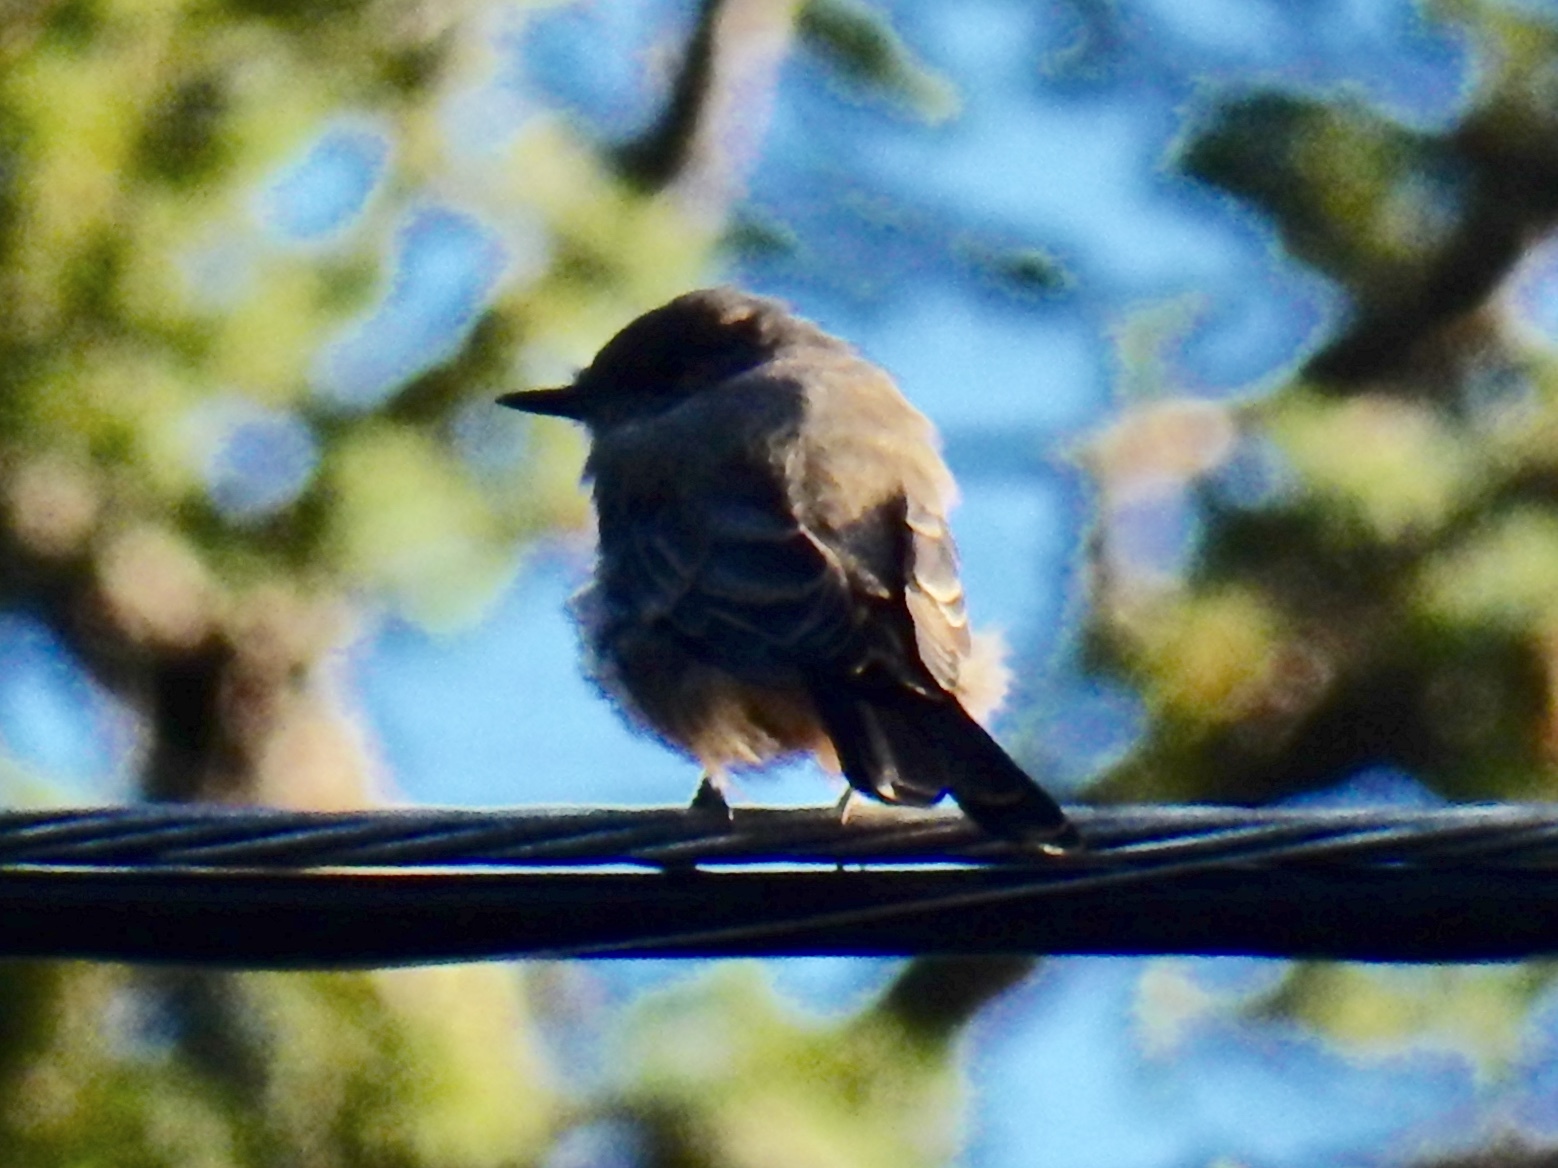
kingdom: Animalia
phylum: Chordata
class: Aves
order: Passeriformes
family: Tyrannidae
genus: Sayornis
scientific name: Sayornis saya
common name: Say's phoebe
